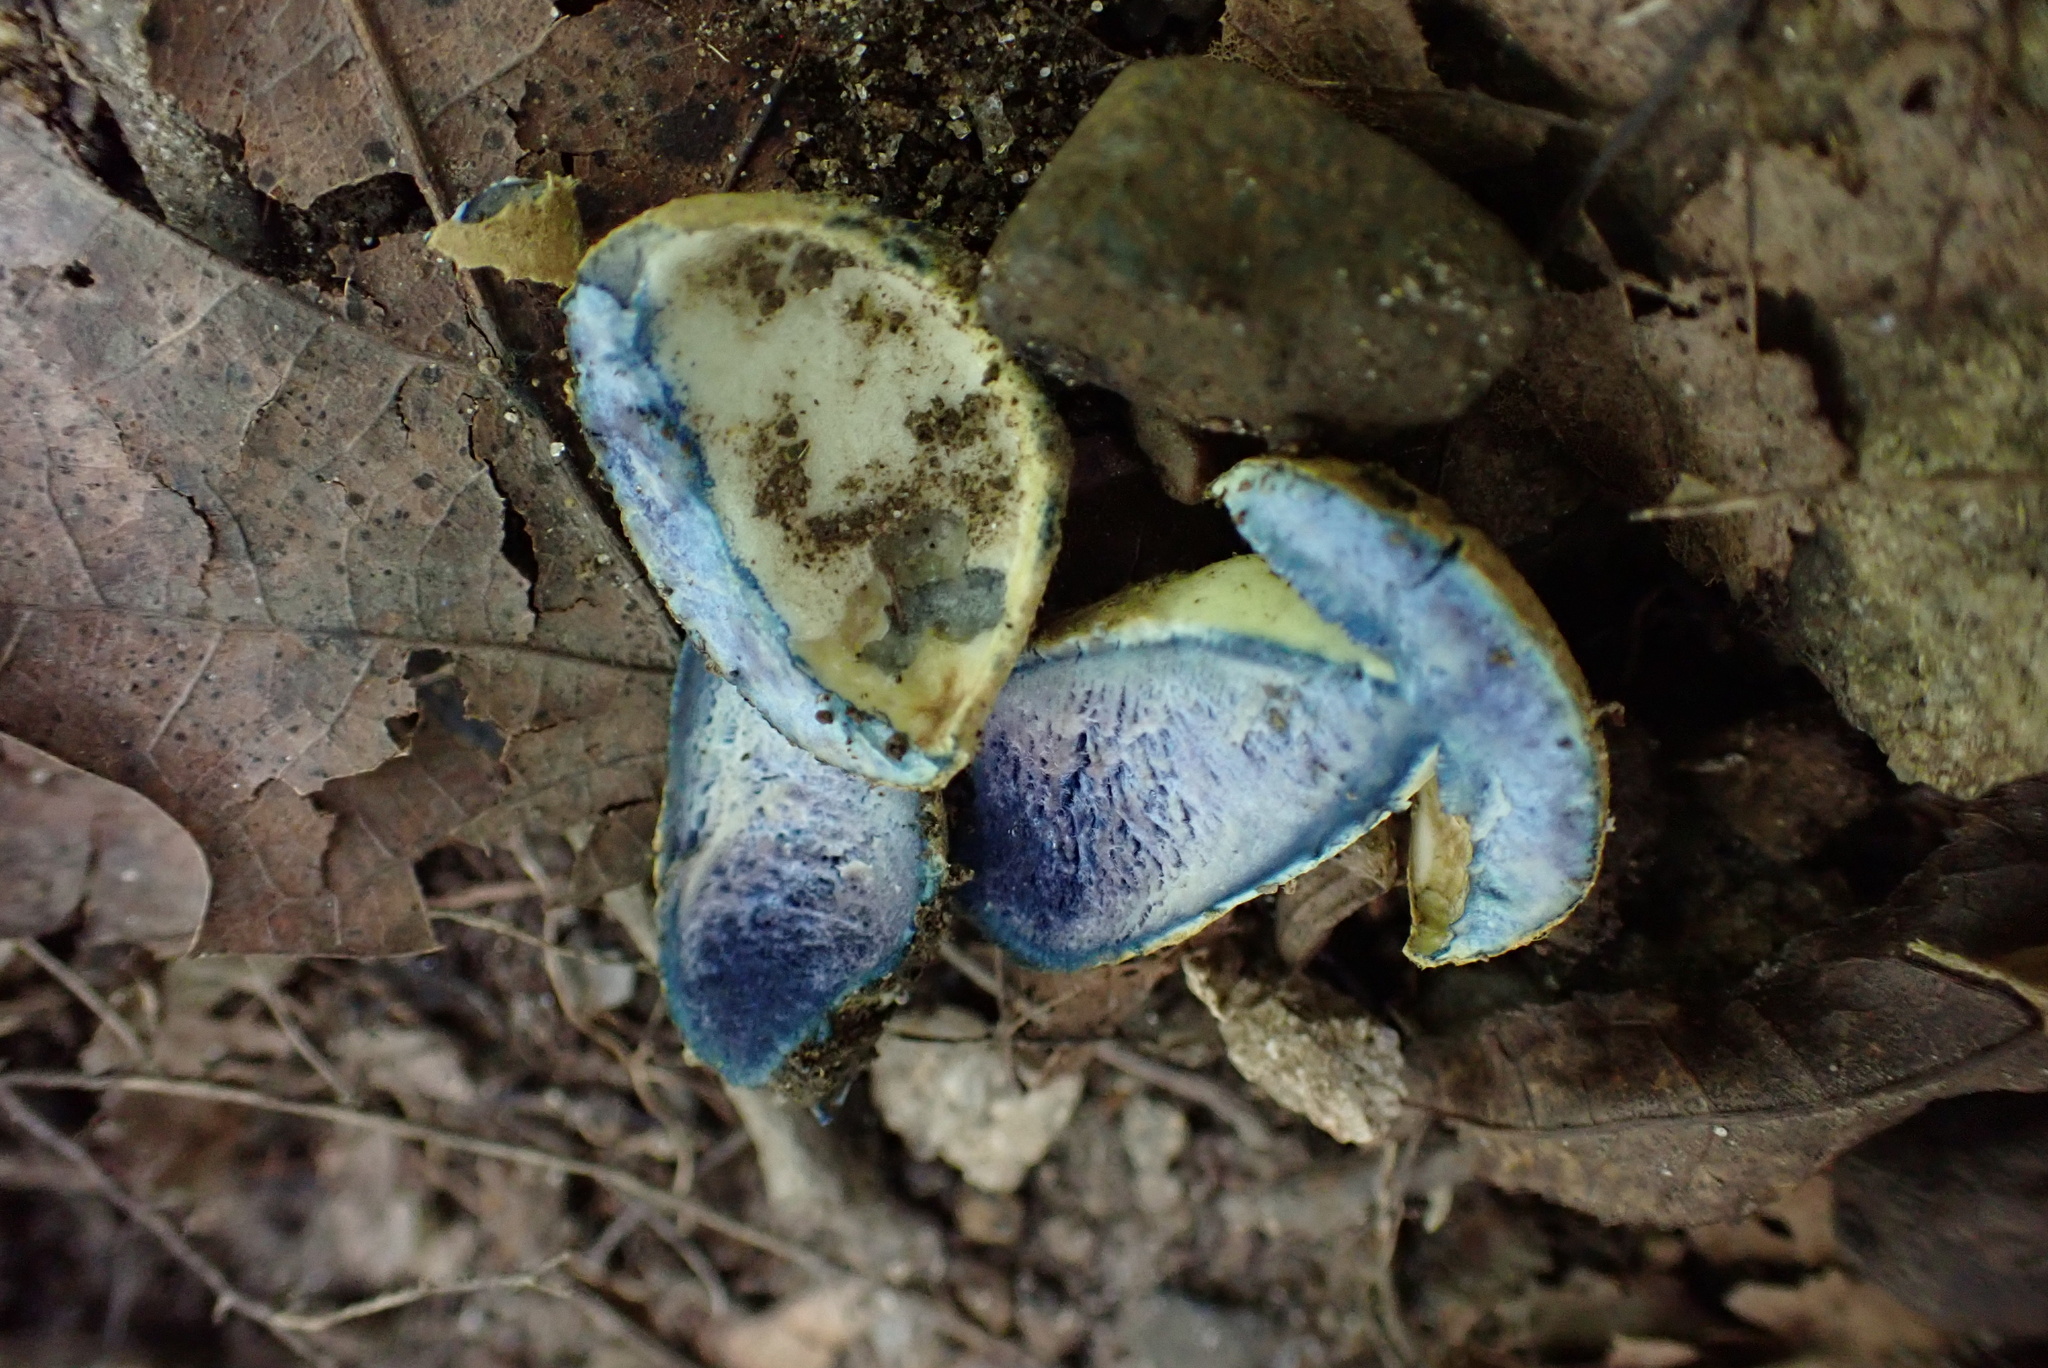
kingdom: Fungi
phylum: Basidiomycota
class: Agaricomycetes
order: Boletales
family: Gyroporaceae
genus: Gyroporus
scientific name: Gyroporus cyanescens
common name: Cornflower bolete
